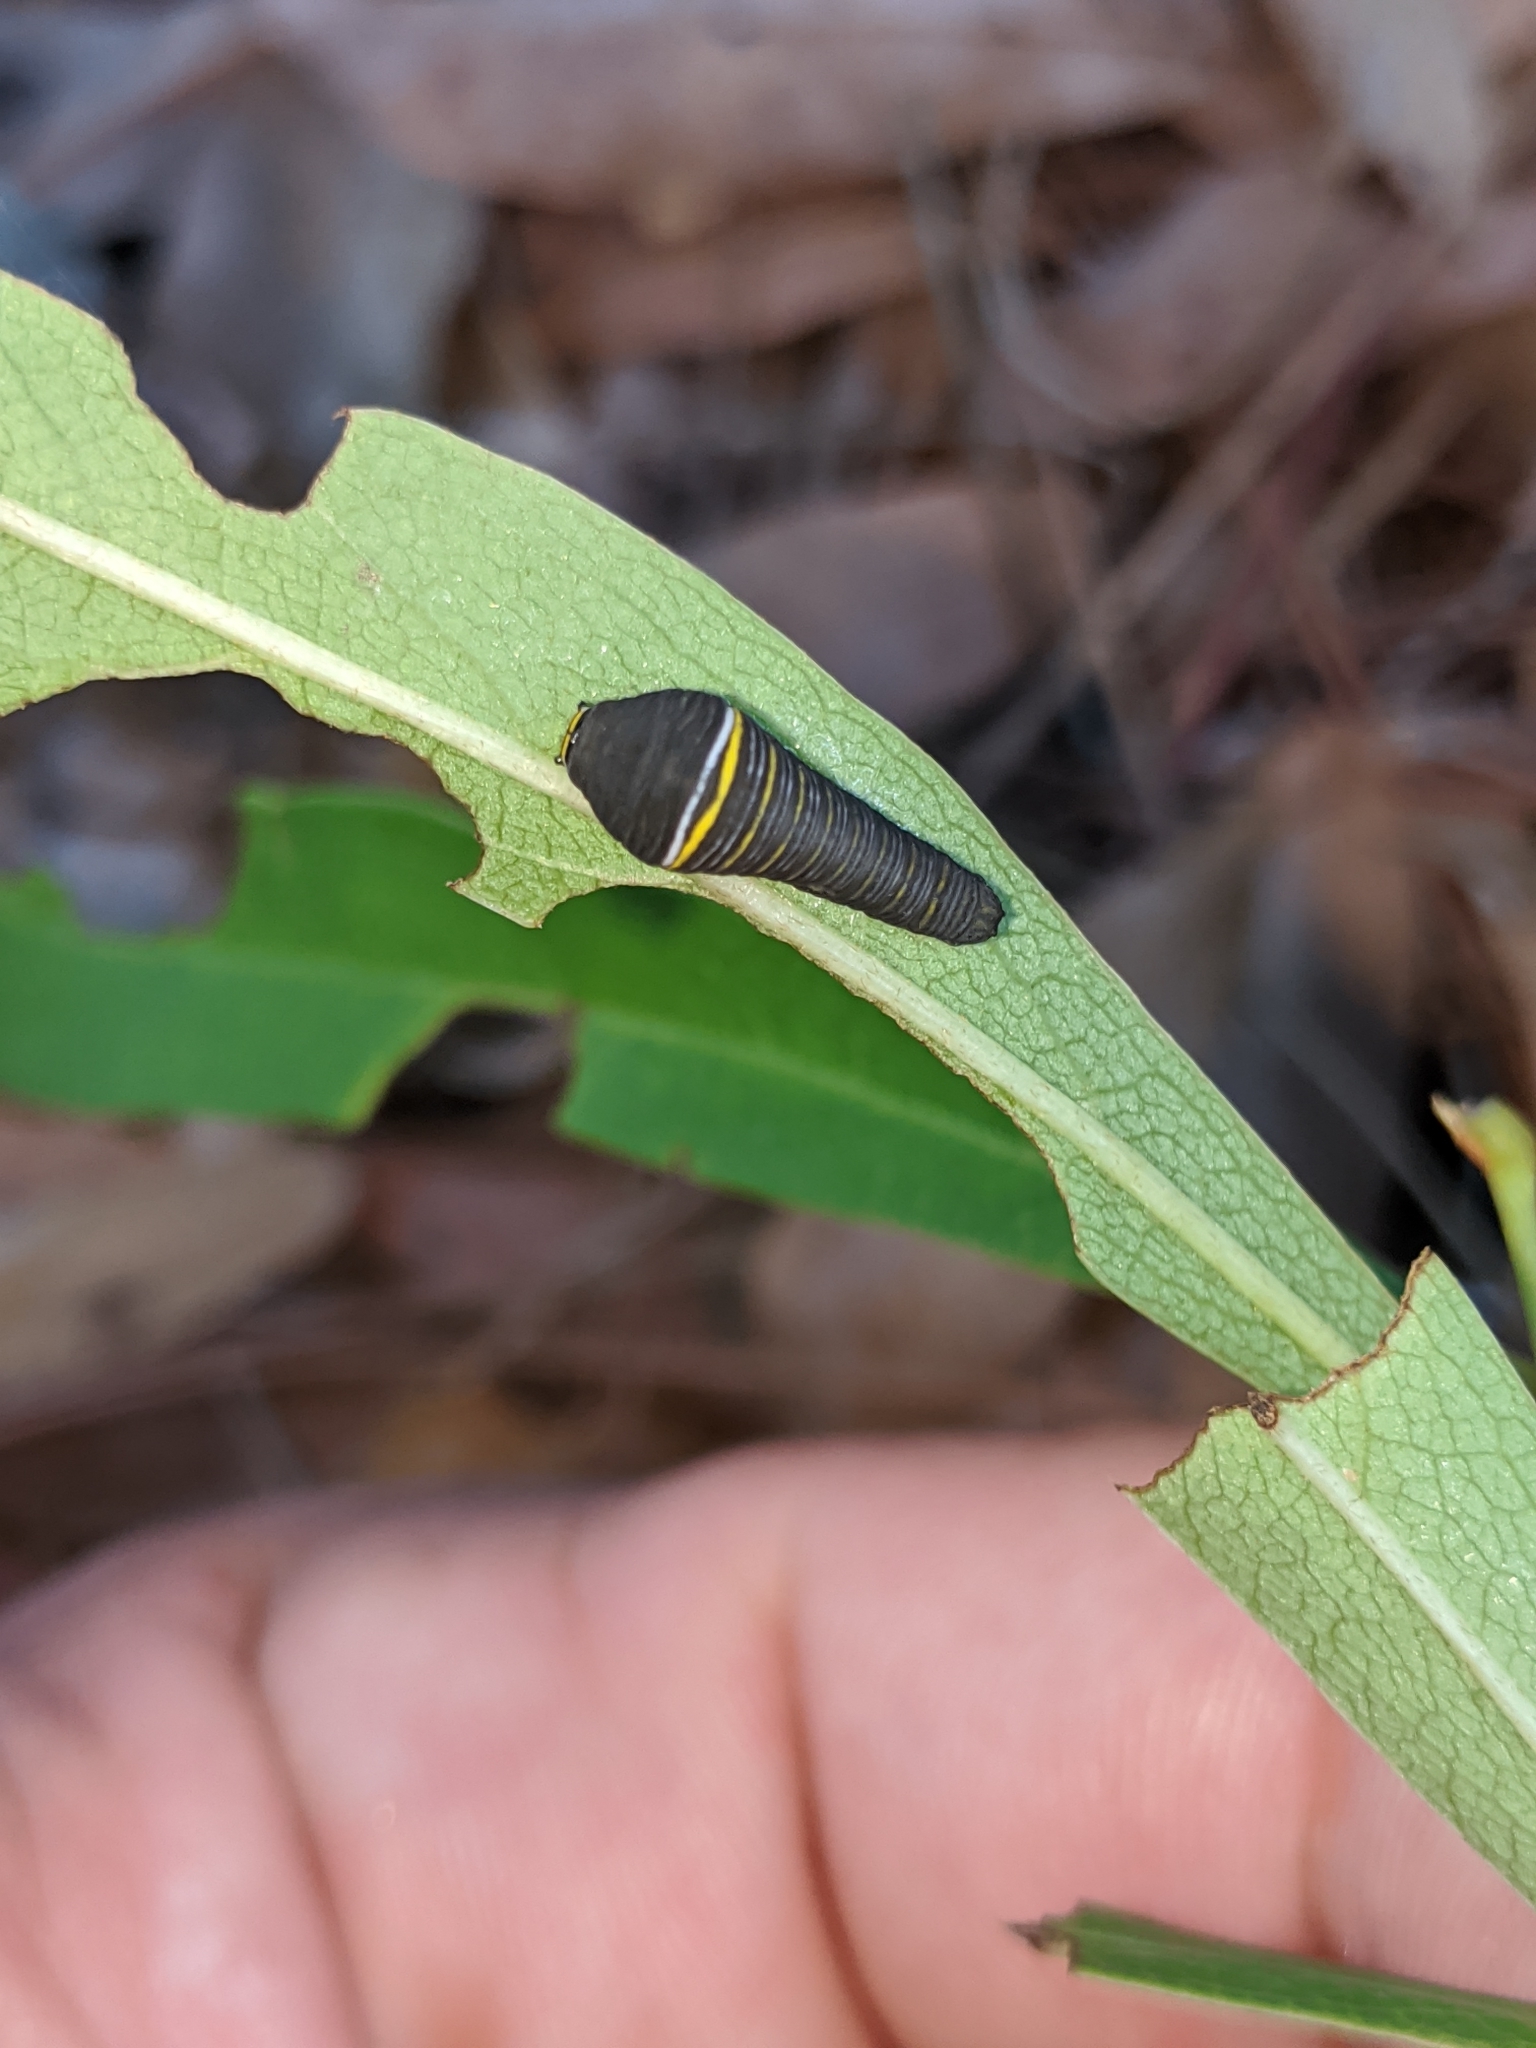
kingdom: Animalia
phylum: Arthropoda
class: Insecta
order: Lepidoptera
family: Papilionidae
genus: Protographium
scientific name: Protographium marcellus
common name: Zebra swallowtail
